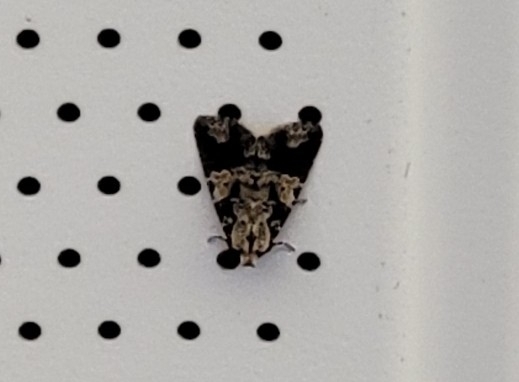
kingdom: Animalia
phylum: Arthropoda
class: Insecta
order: Lepidoptera
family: Noctuidae
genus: Condica
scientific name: Condica confederata
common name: The confederate
